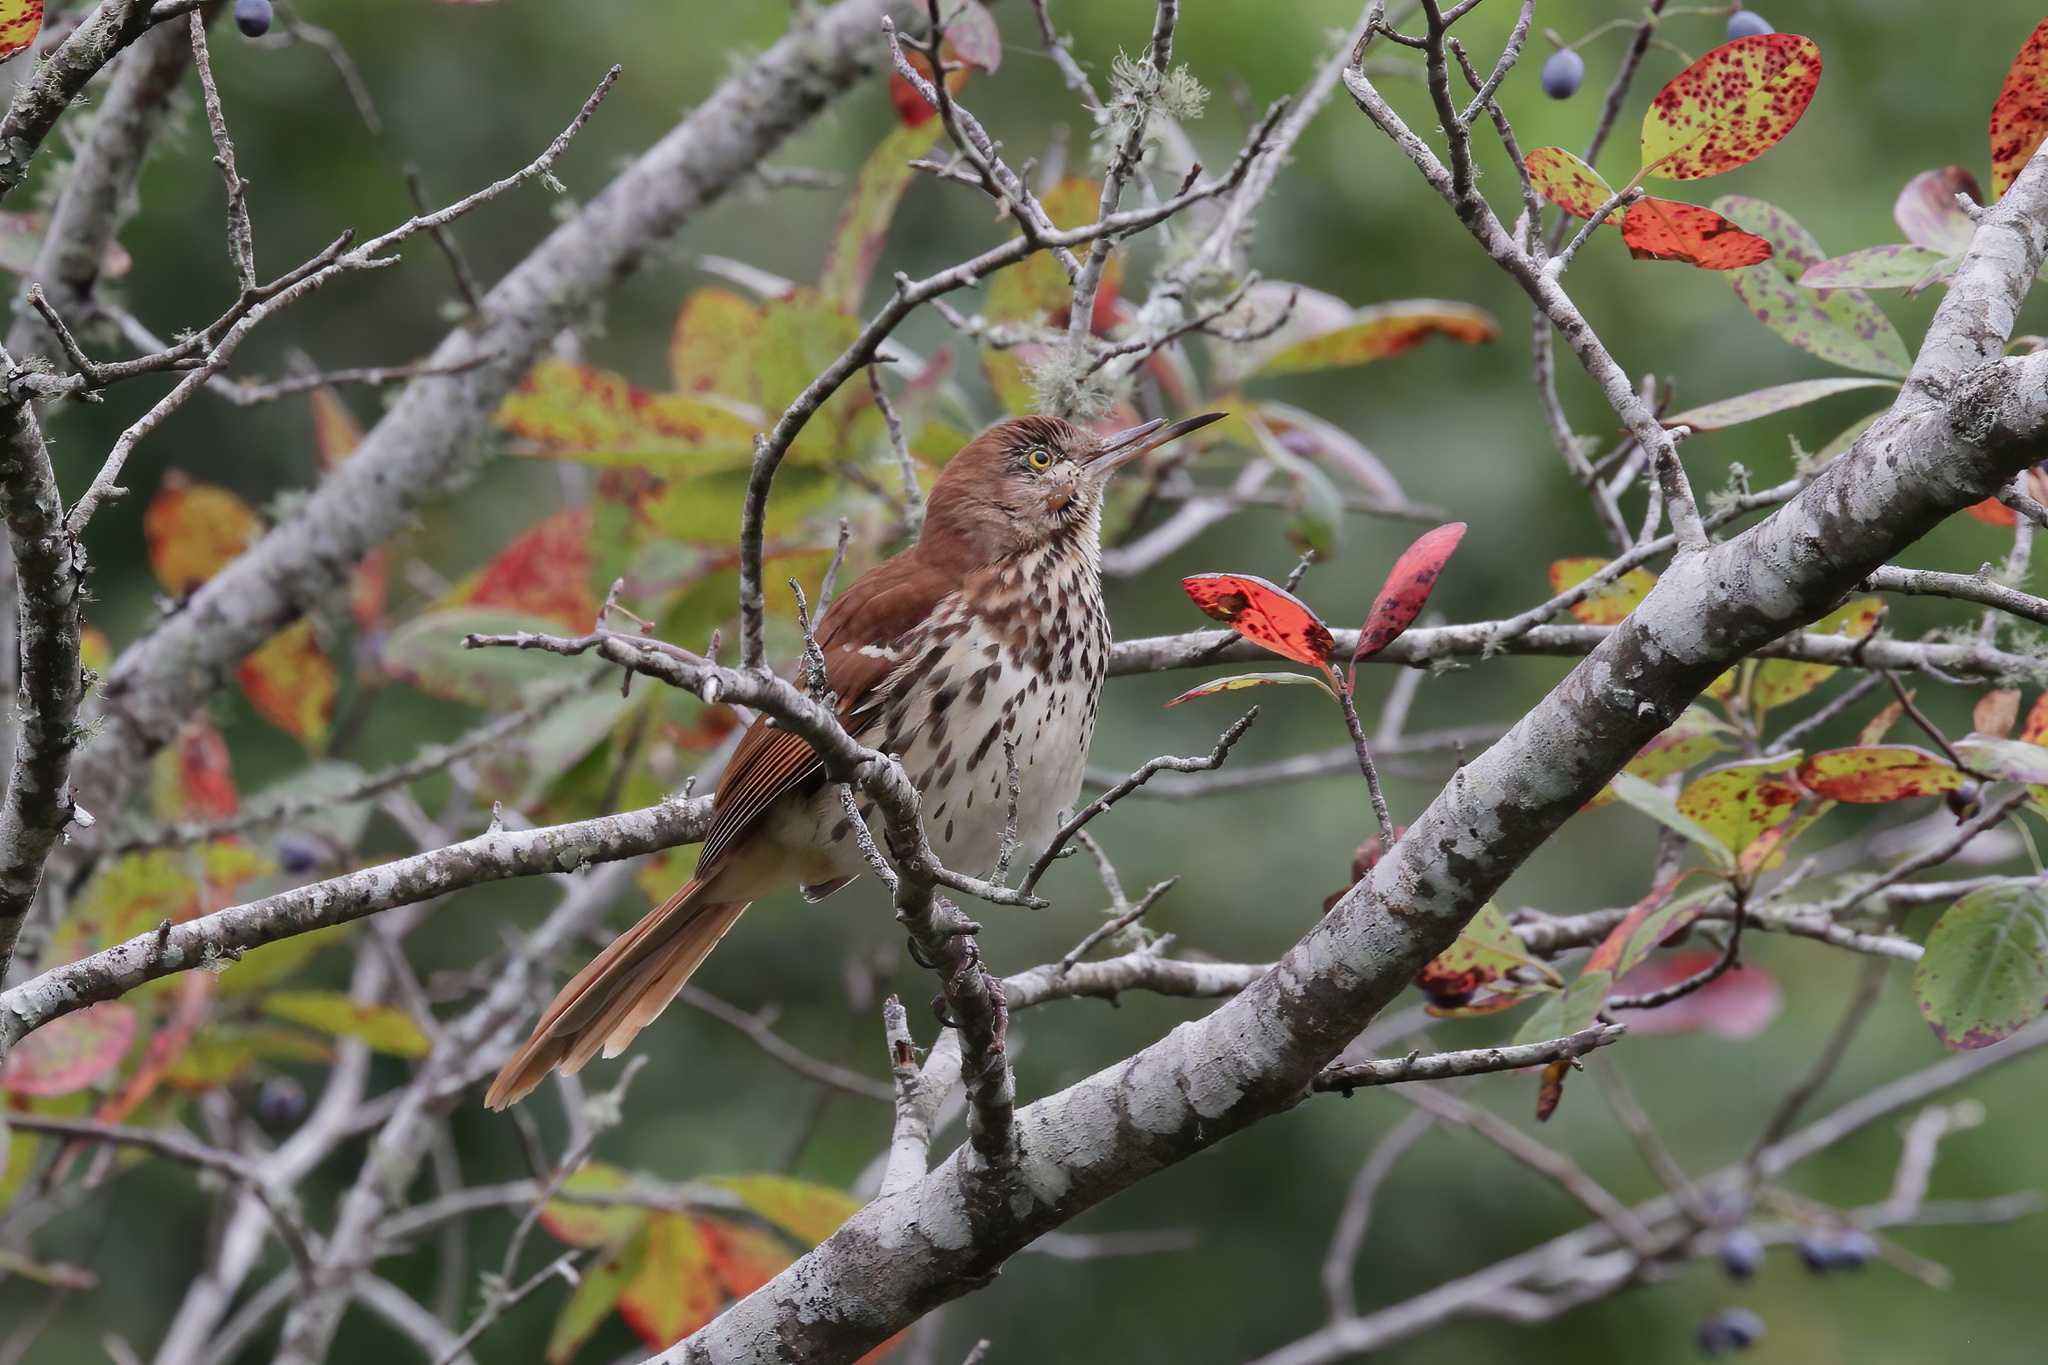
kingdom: Animalia
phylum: Chordata
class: Aves
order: Passeriformes
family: Mimidae
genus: Toxostoma
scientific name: Toxostoma rufum
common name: Brown thrasher
